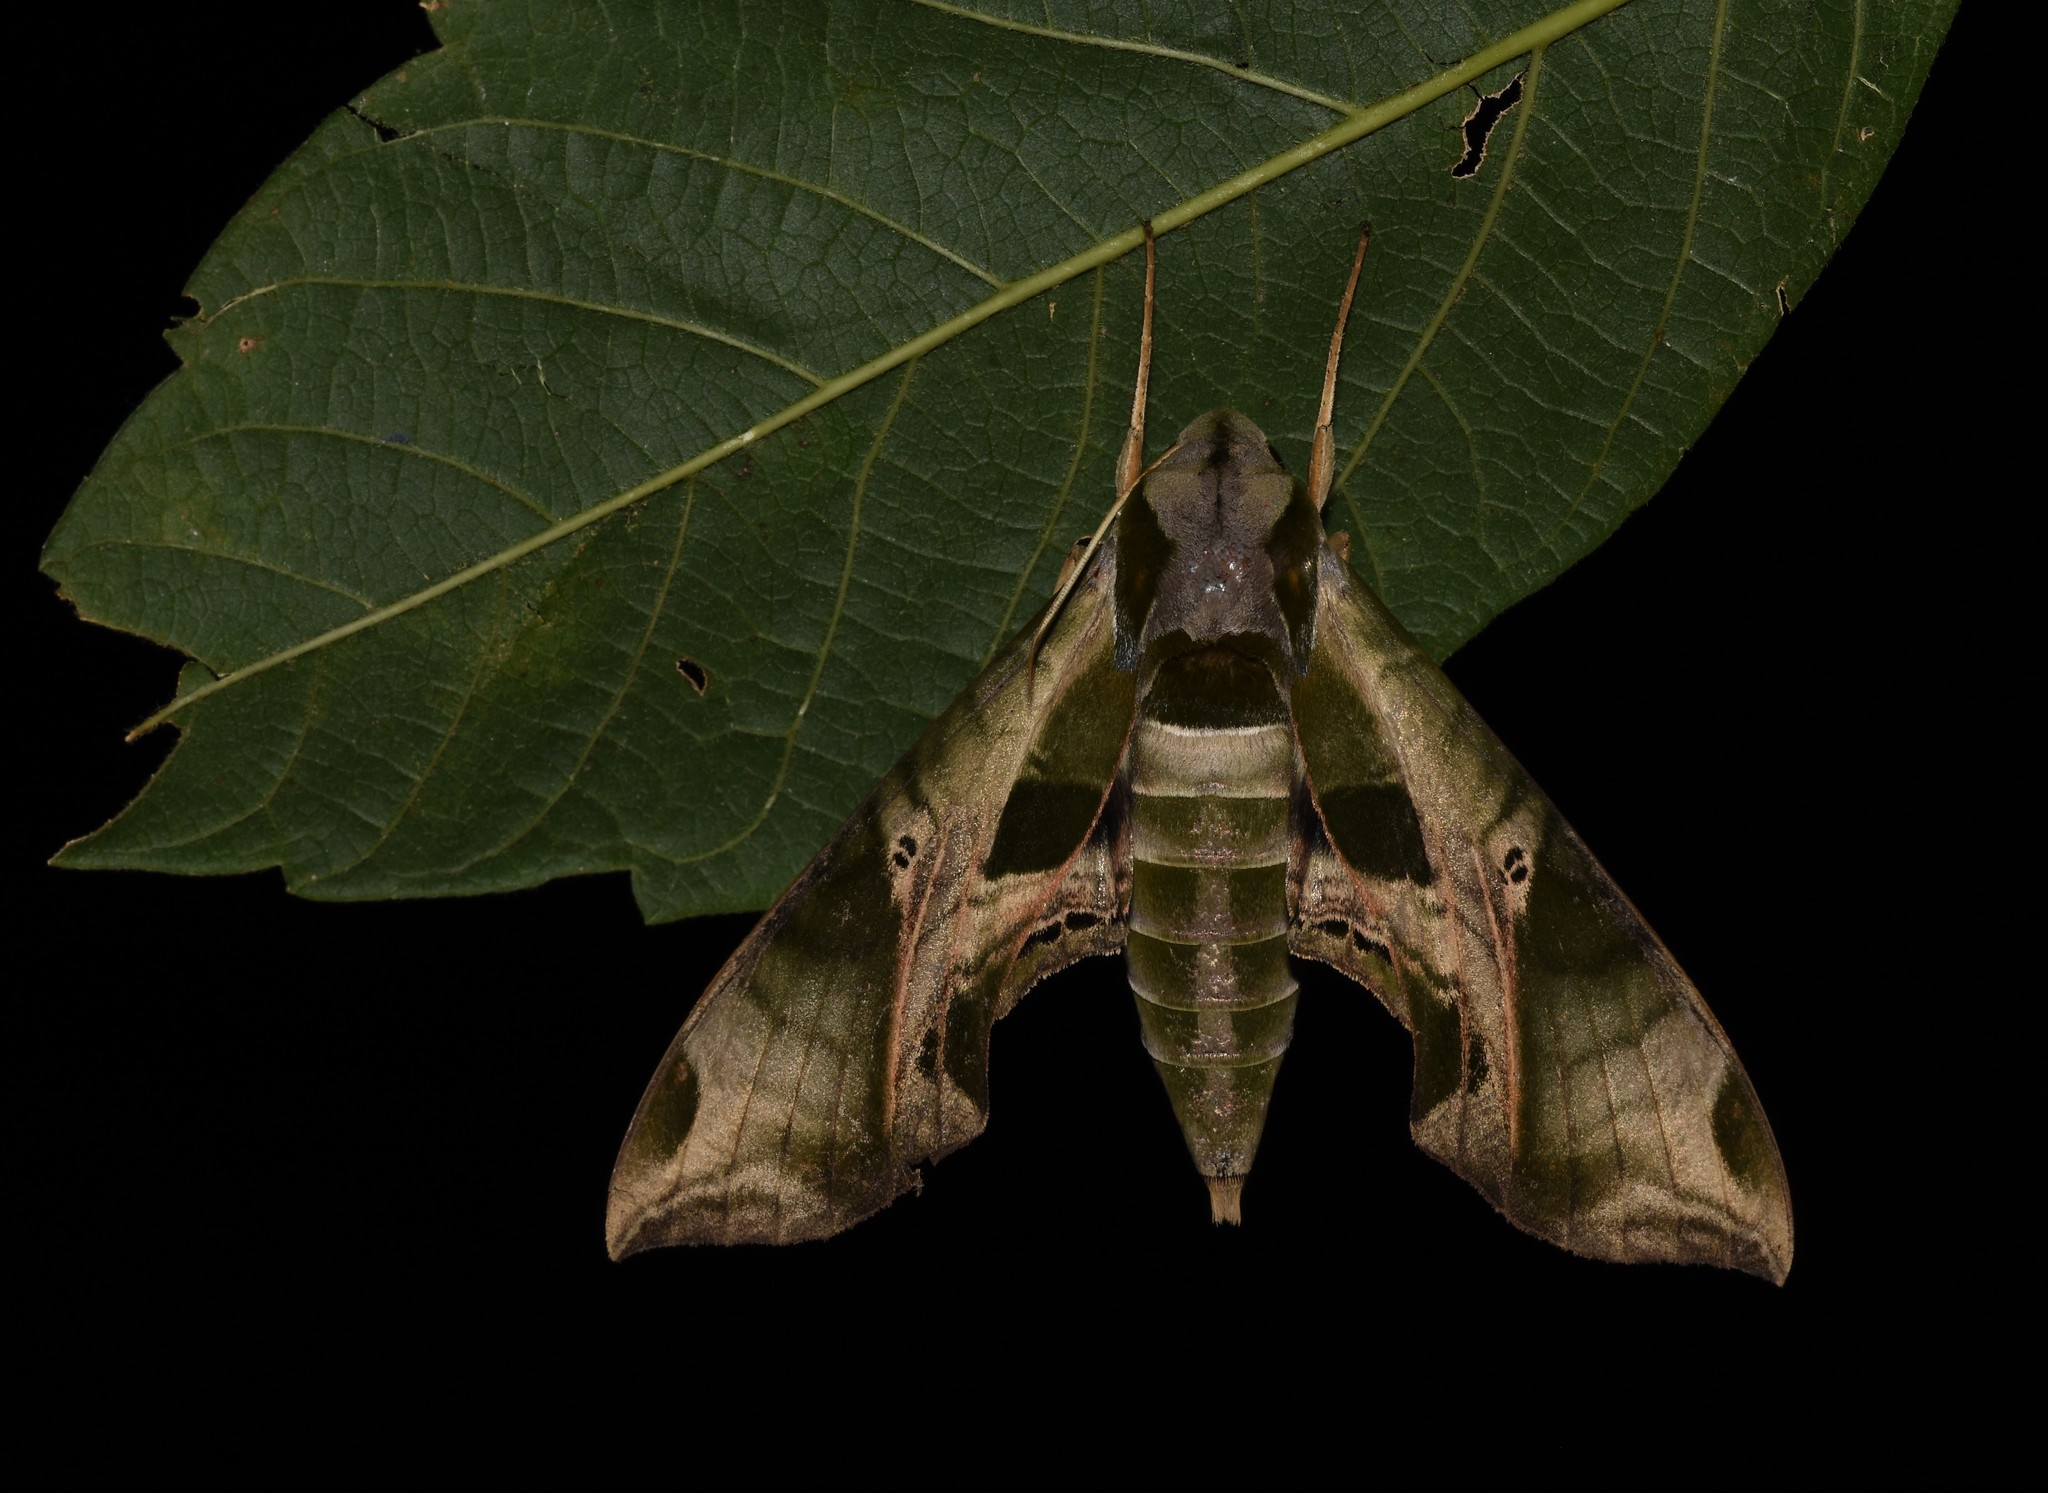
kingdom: Animalia
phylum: Arthropoda
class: Insecta
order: Lepidoptera
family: Sphingidae
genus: Eumorpha
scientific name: Eumorpha pandorus
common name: Pandora sphinx
